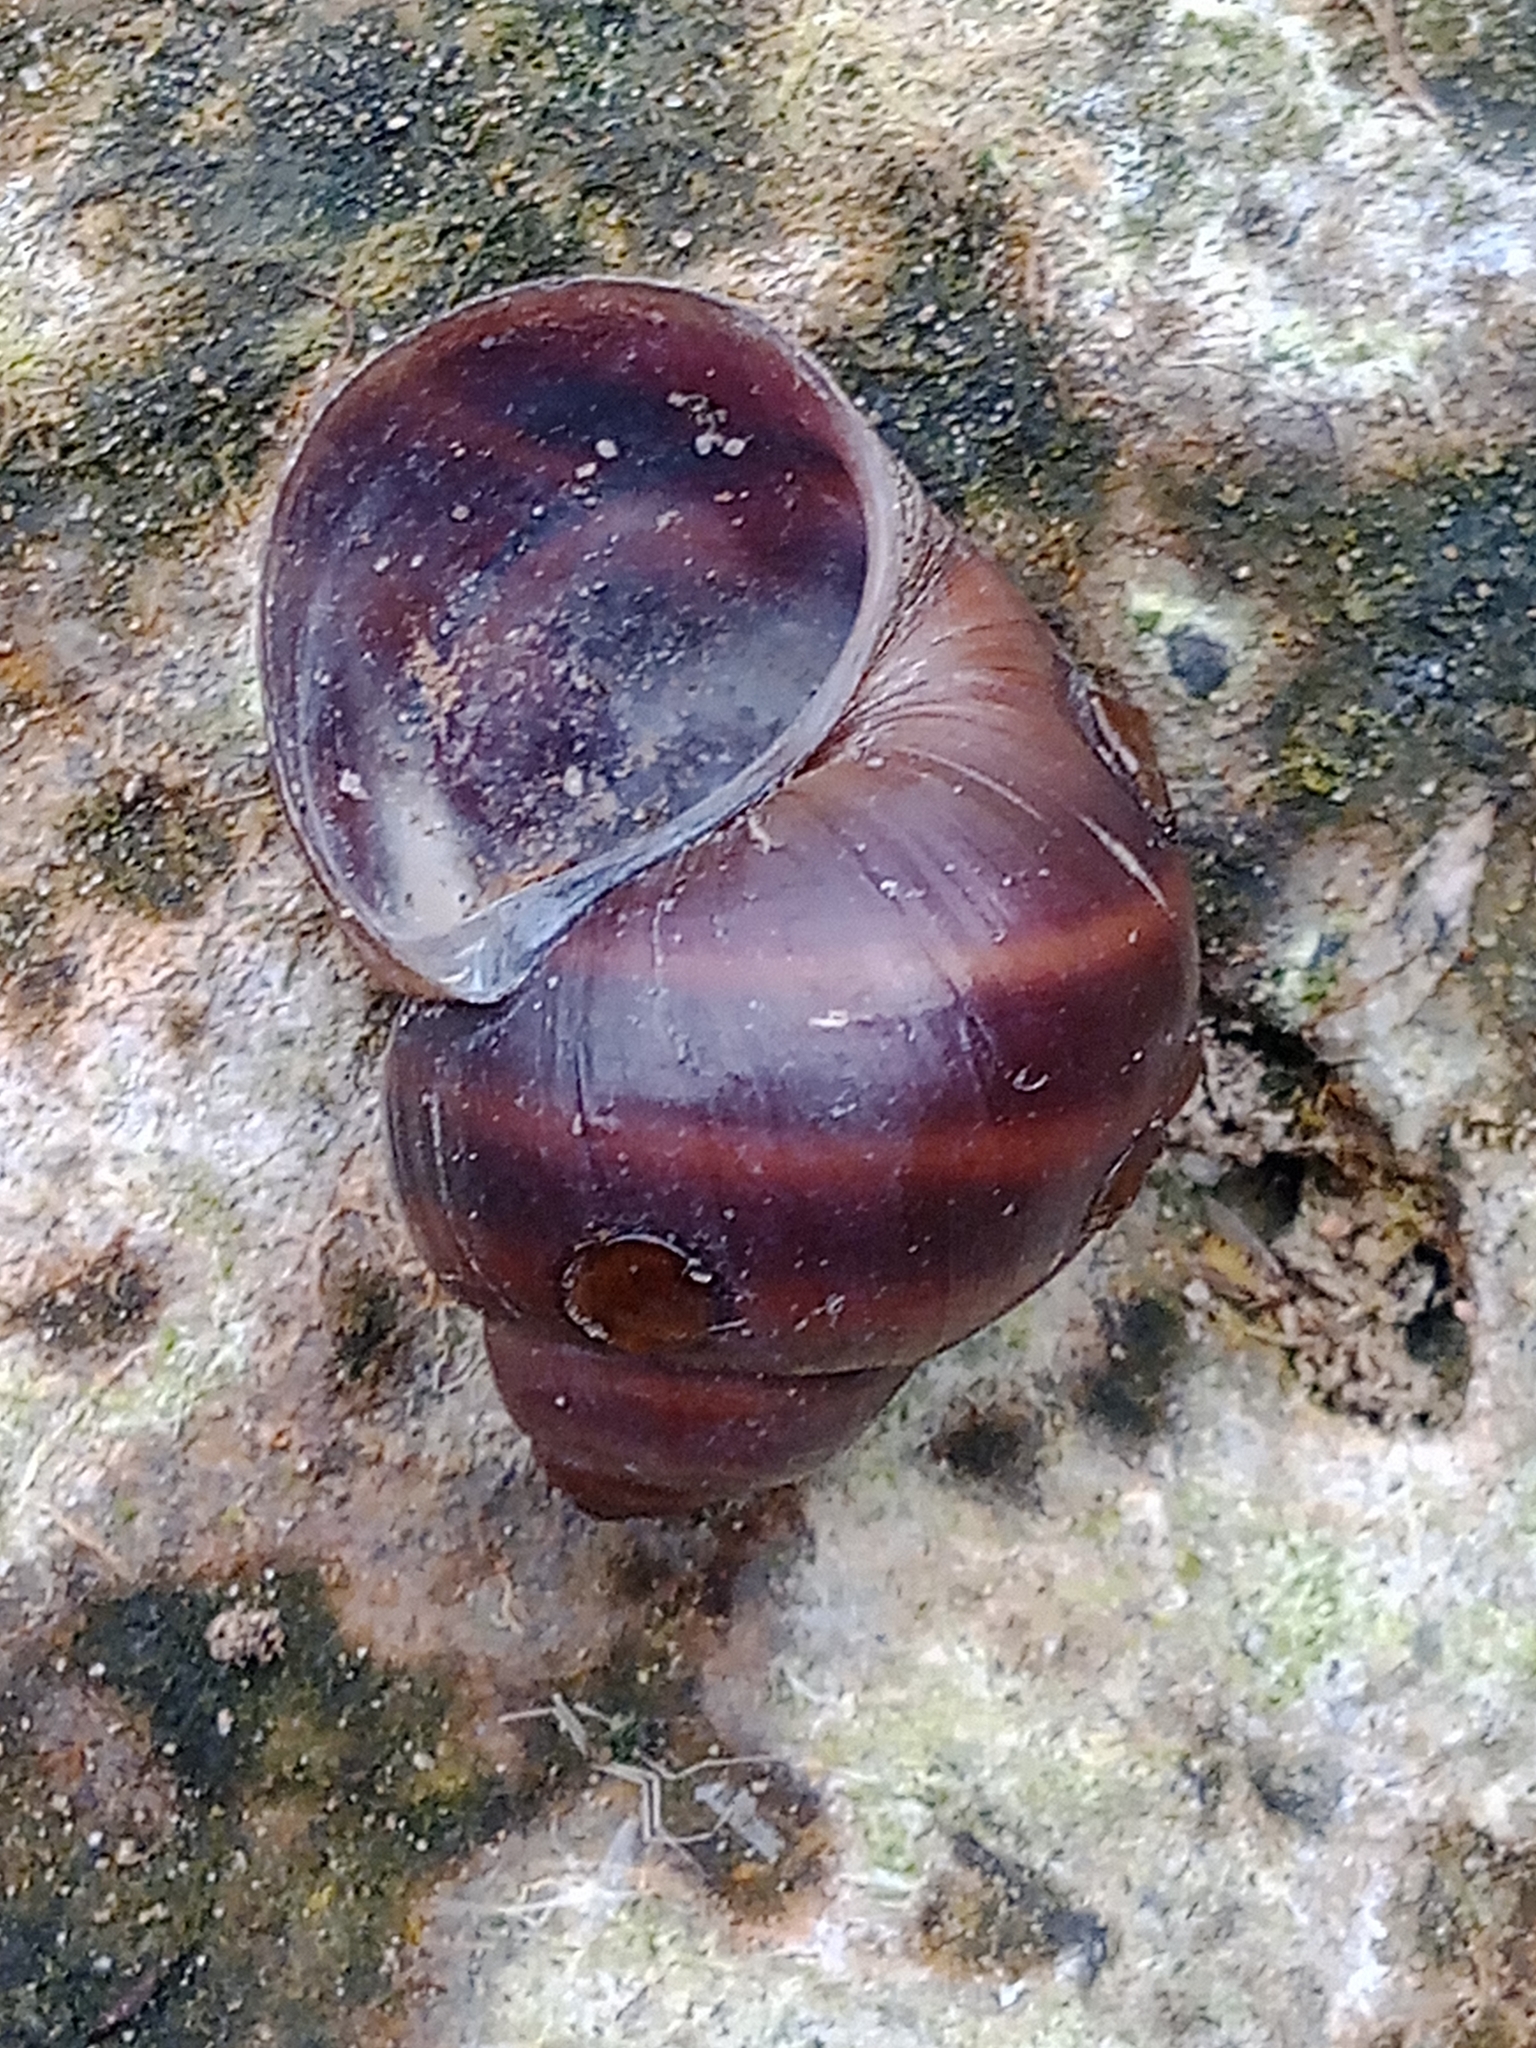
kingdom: Animalia
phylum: Mollusca
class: Gastropoda
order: Architaenioglossa
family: Viviparidae
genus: Viviparus
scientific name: Viviparus viviparus
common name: River snail
